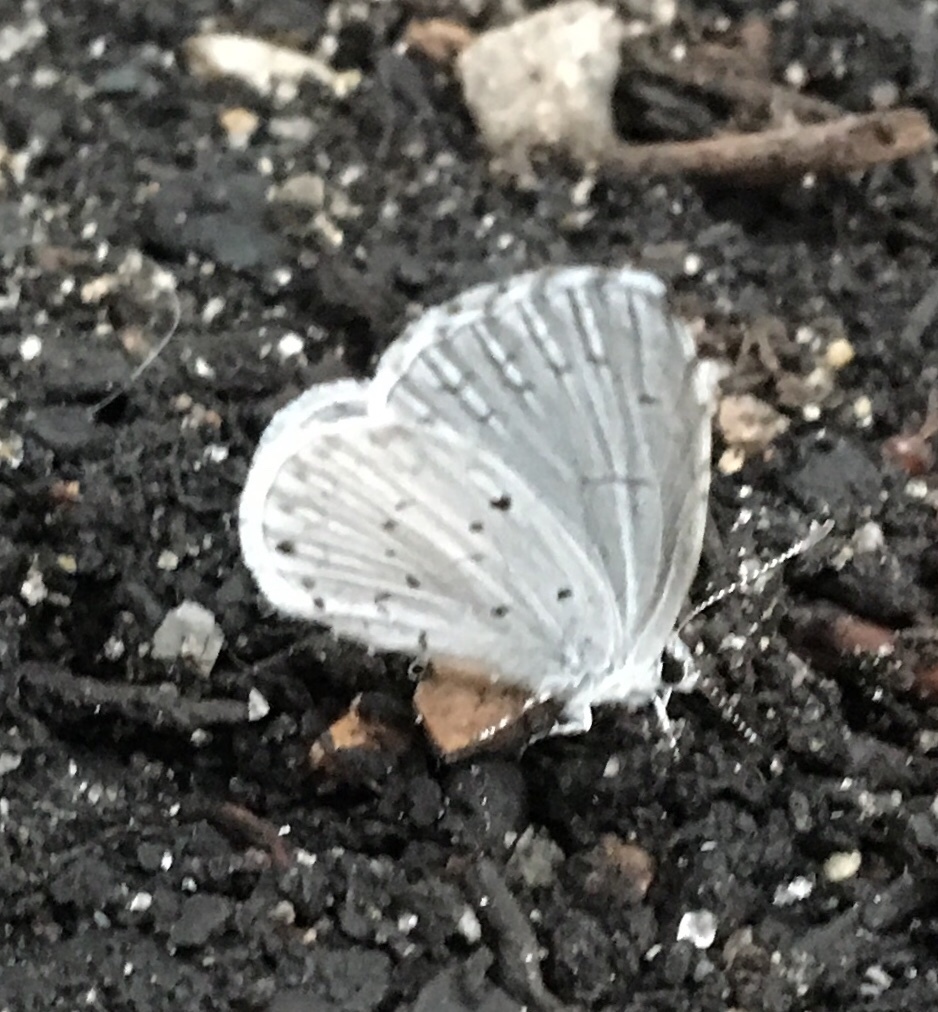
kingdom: Animalia
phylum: Arthropoda
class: Insecta
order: Lepidoptera
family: Lycaenidae
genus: Cyaniris
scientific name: Cyaniris neglecta
